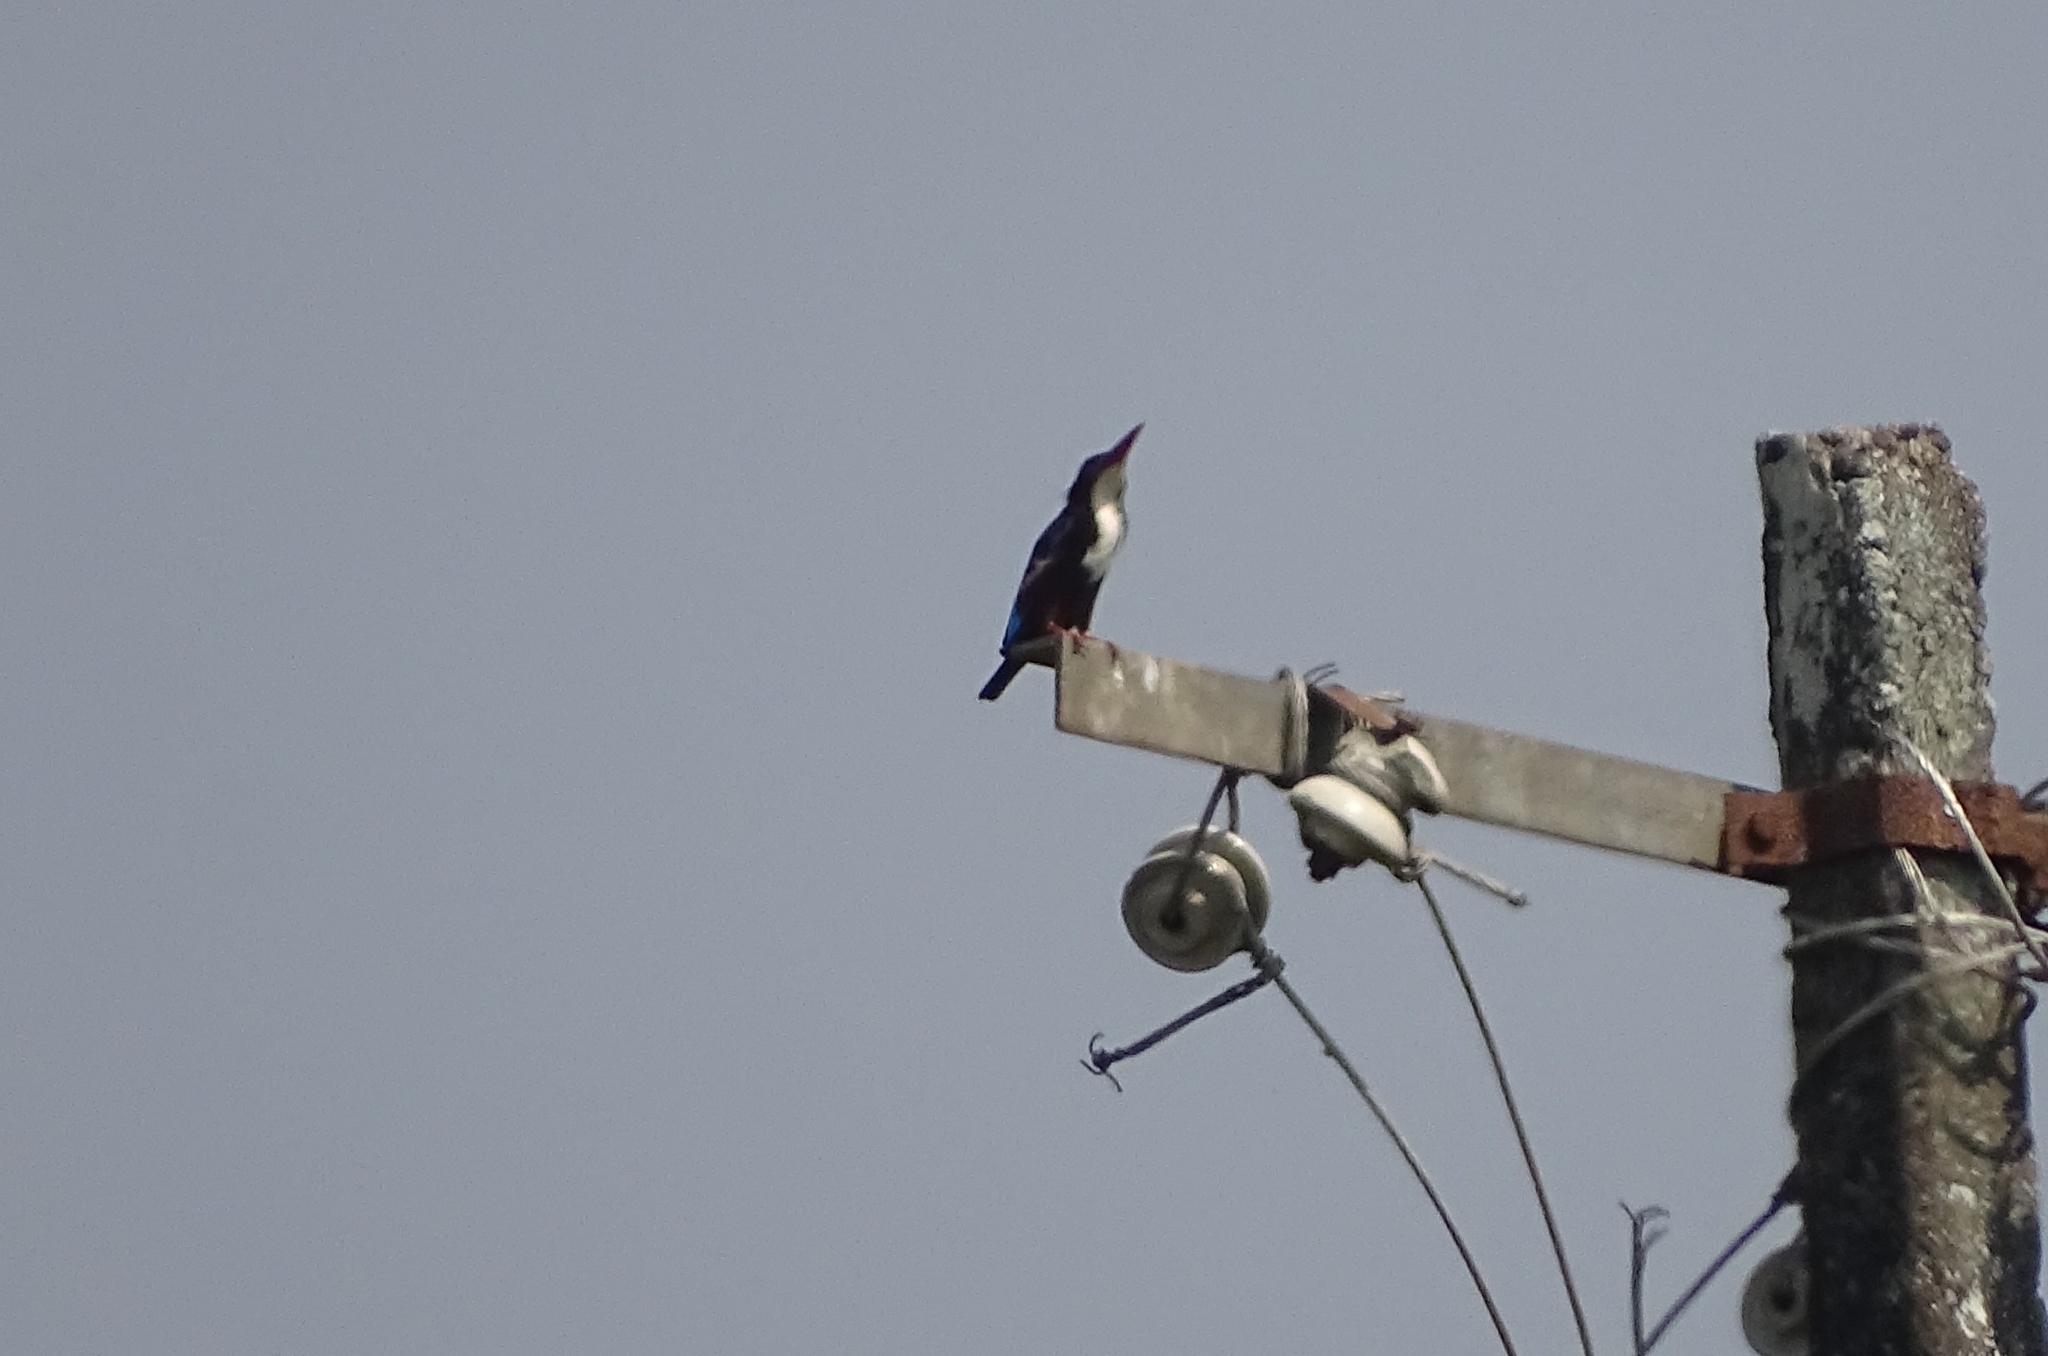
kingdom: Animalia
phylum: Chordata
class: Aves
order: Coraciiformes
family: Alcedinidae
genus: Halcyon
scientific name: Halcyon smyrnensis
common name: White-throated kingfisher
